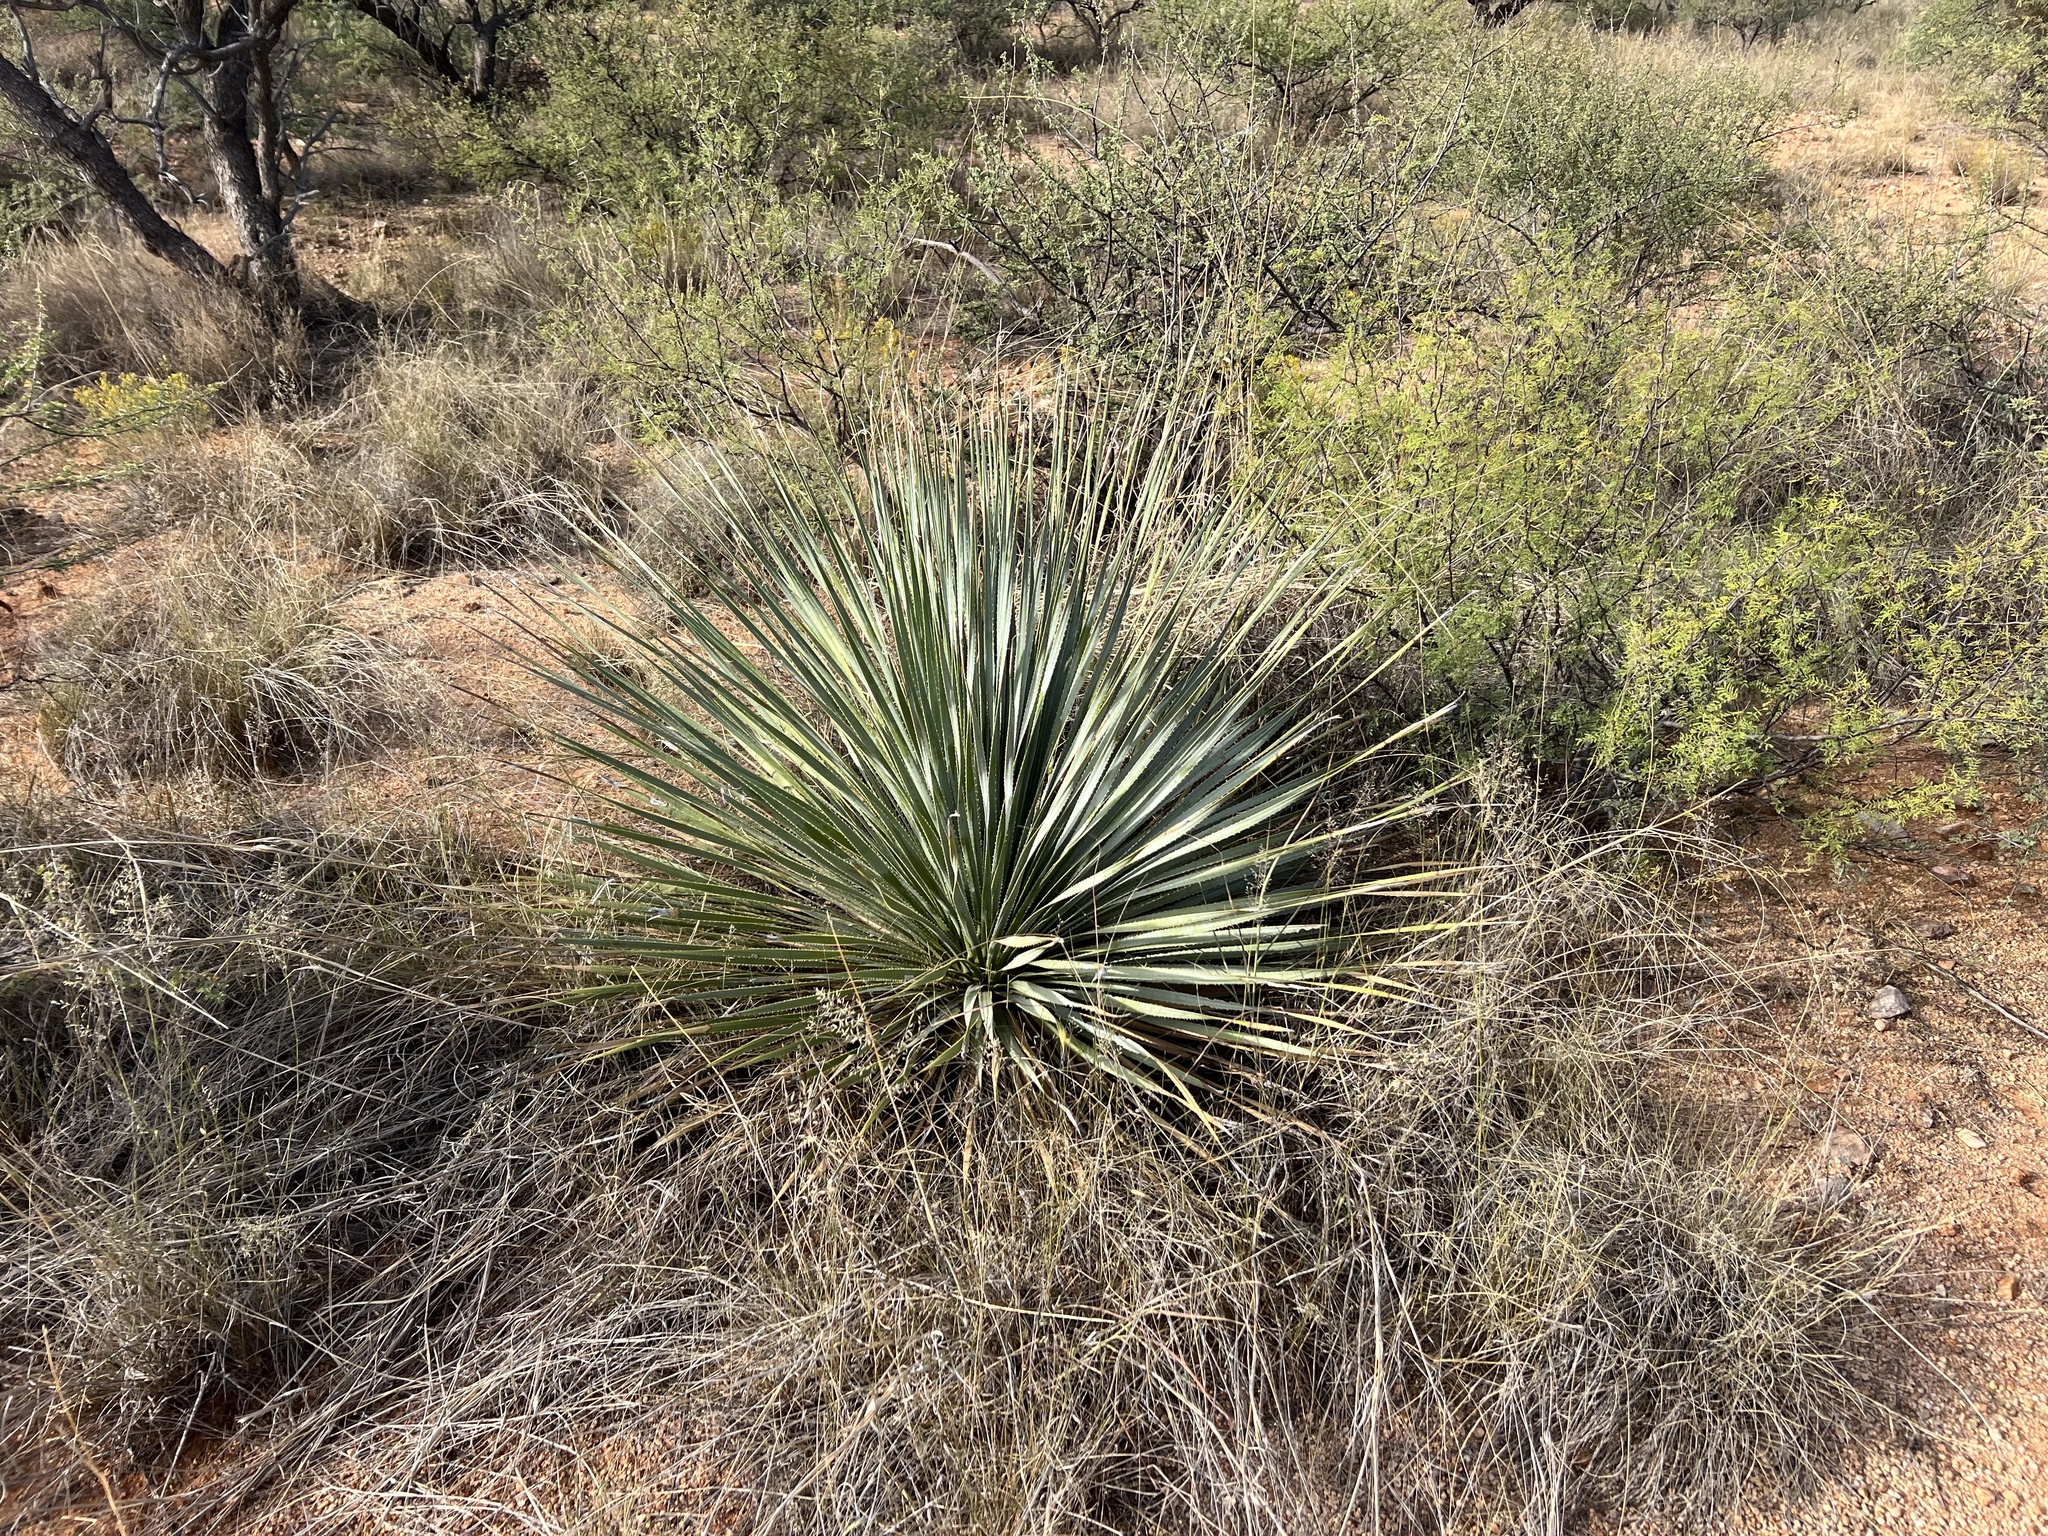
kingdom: Plantae
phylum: Tracheophyta
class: Liliopsida
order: Asparagales
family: Asparagaceae
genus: Dasylirion
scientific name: Dasylirion wheeleri
